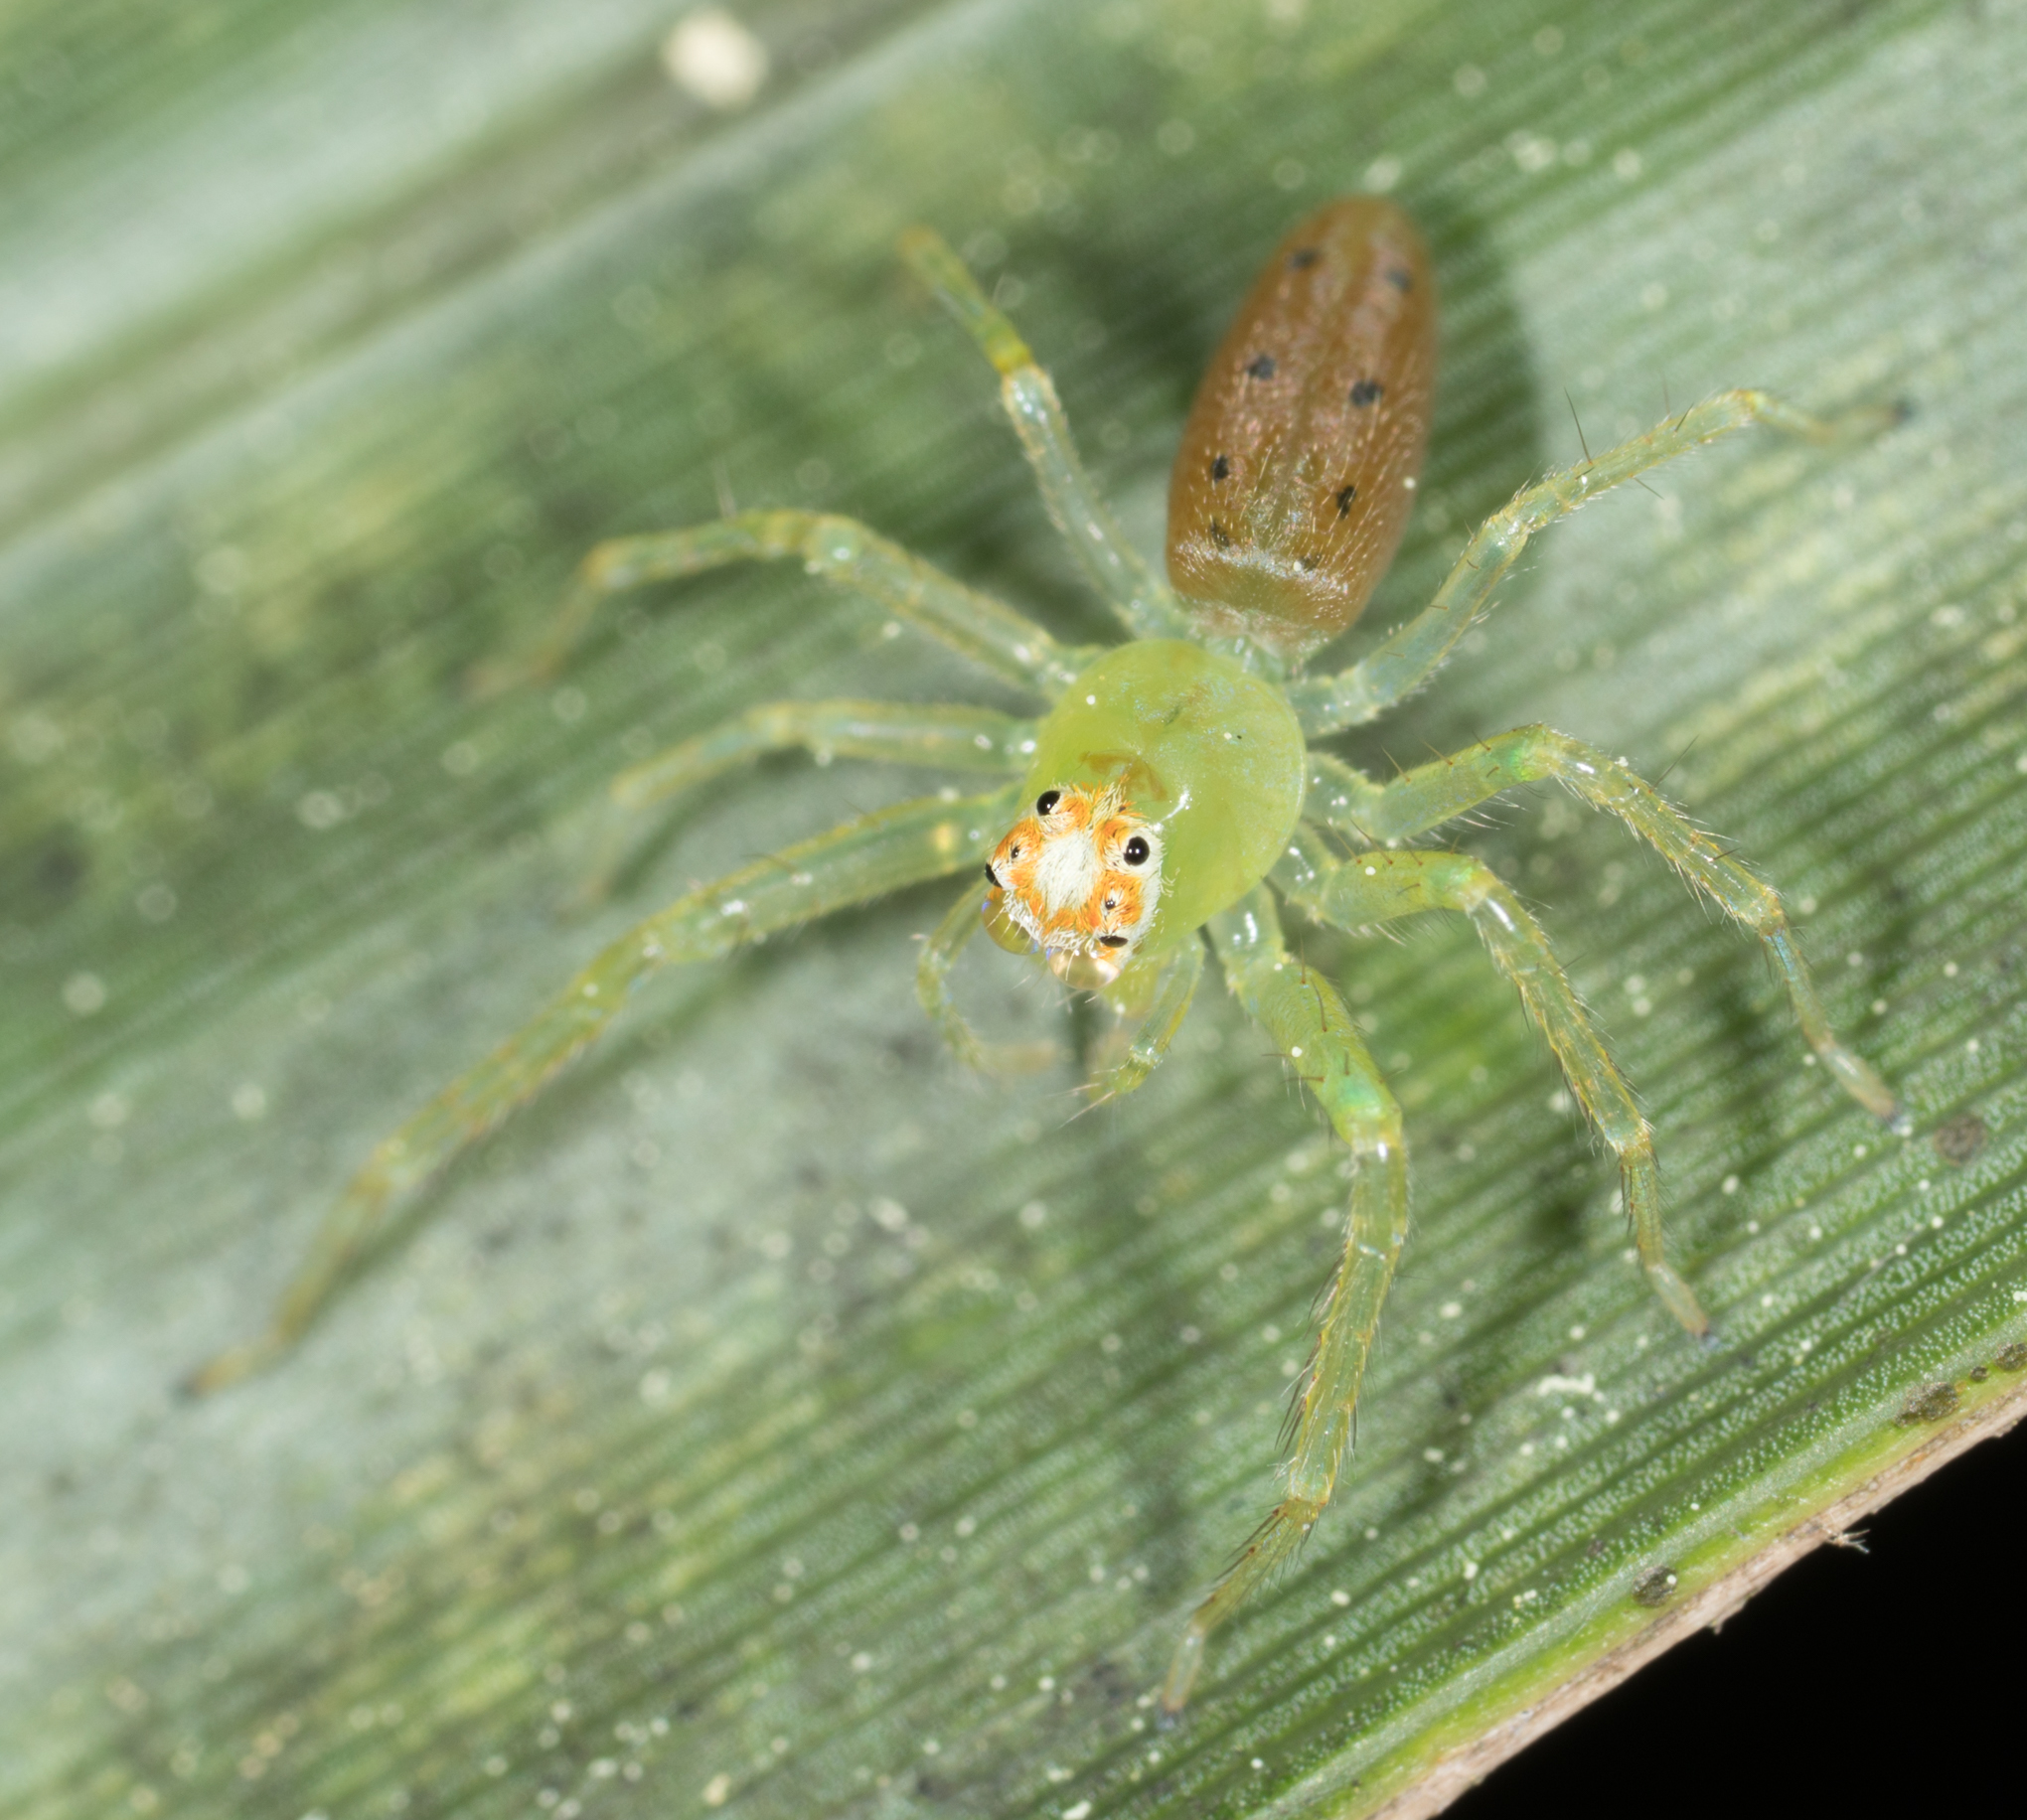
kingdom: Animalia
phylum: Arthropoda
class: Arachnida
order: Araneae
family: Salticidae
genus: Lyssomanes
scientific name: Lyssomanes viridis
